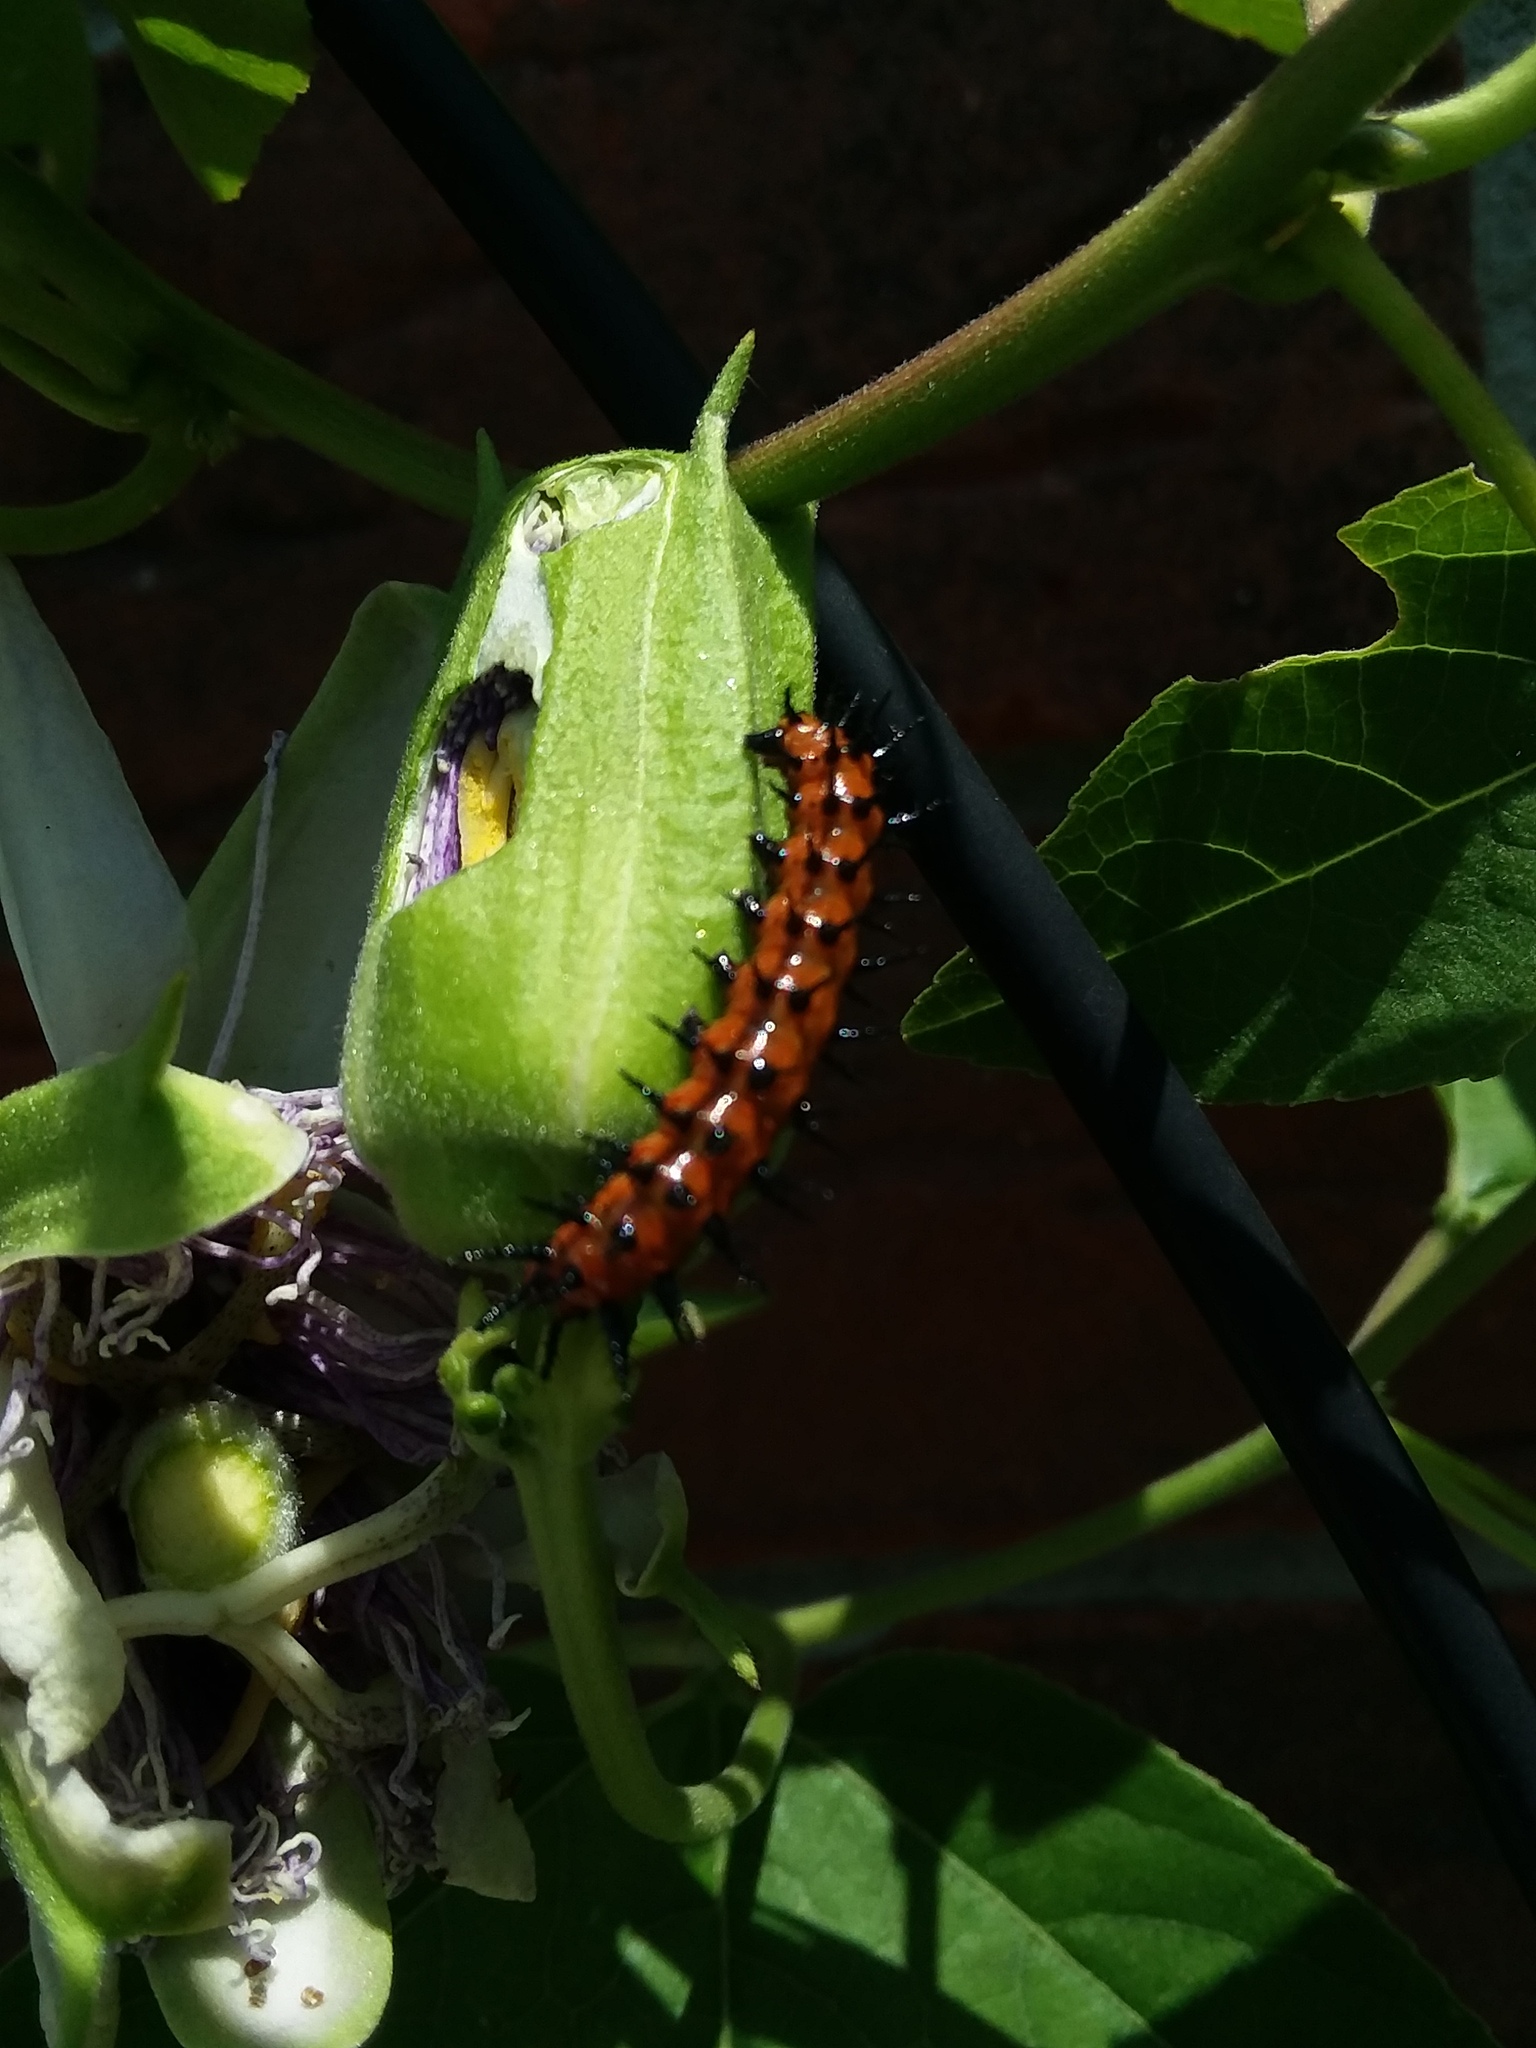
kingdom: Animalia
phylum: Arthropoda
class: Insecta
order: Lepidoptera
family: Nymphalidae
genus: Dione
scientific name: Dione vanillae
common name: Gulf fritillary
